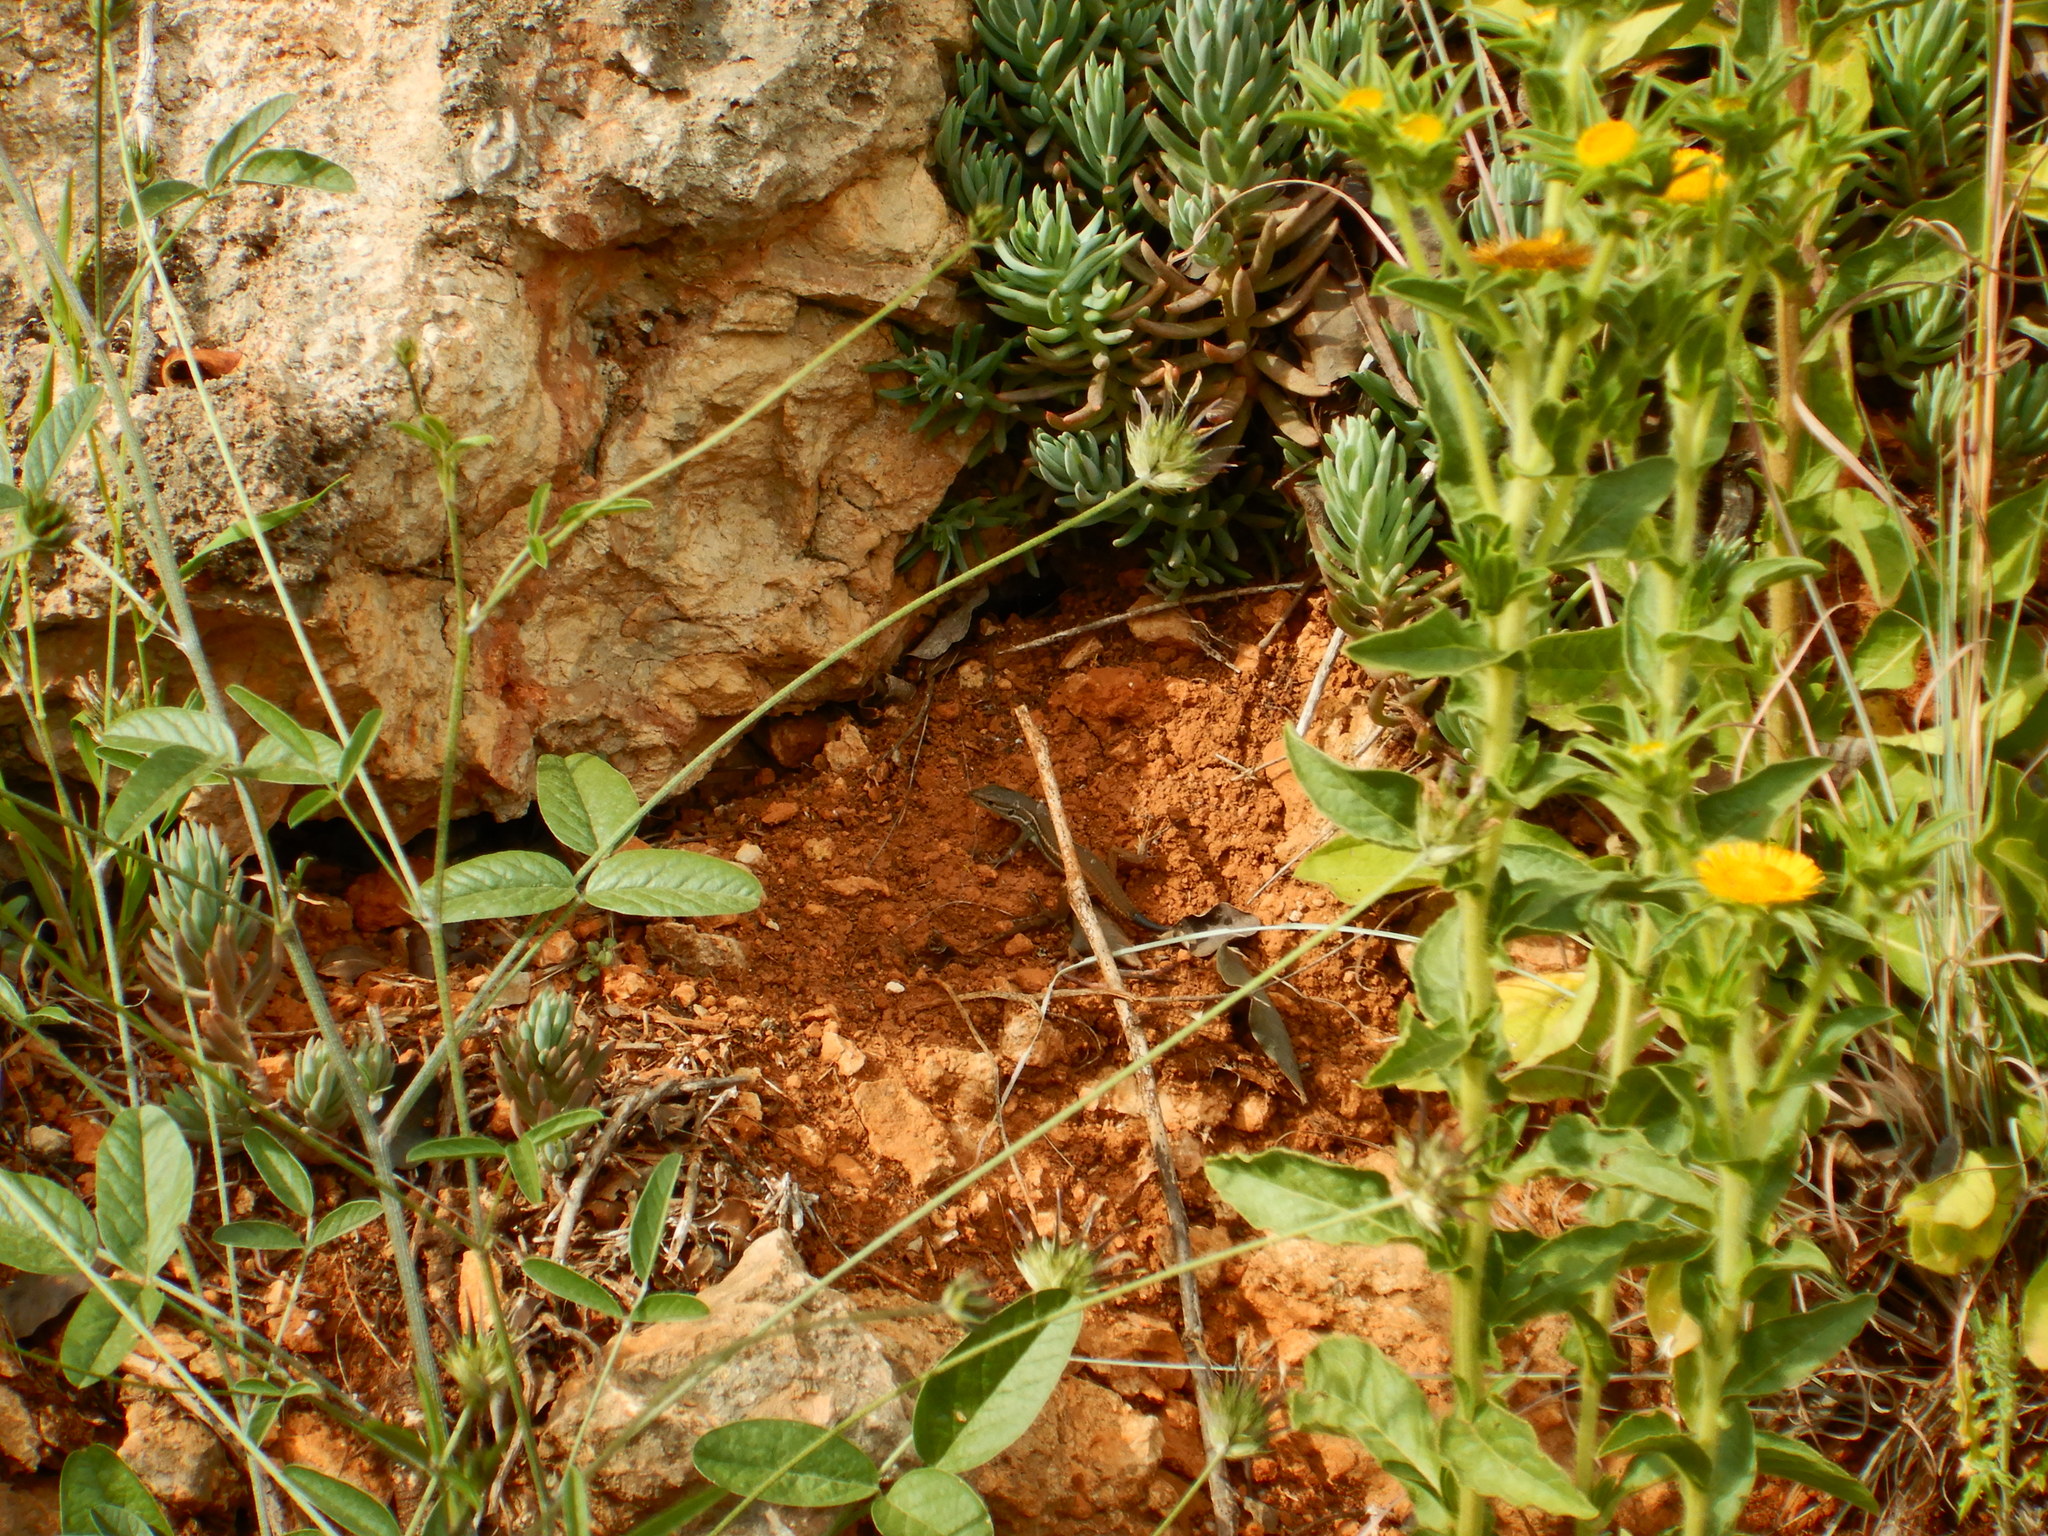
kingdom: Animalia
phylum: Chordata
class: Squamata
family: Lacertidae
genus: Psammodromus
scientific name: Psammodromus algirus
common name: Algerian psammodromus
